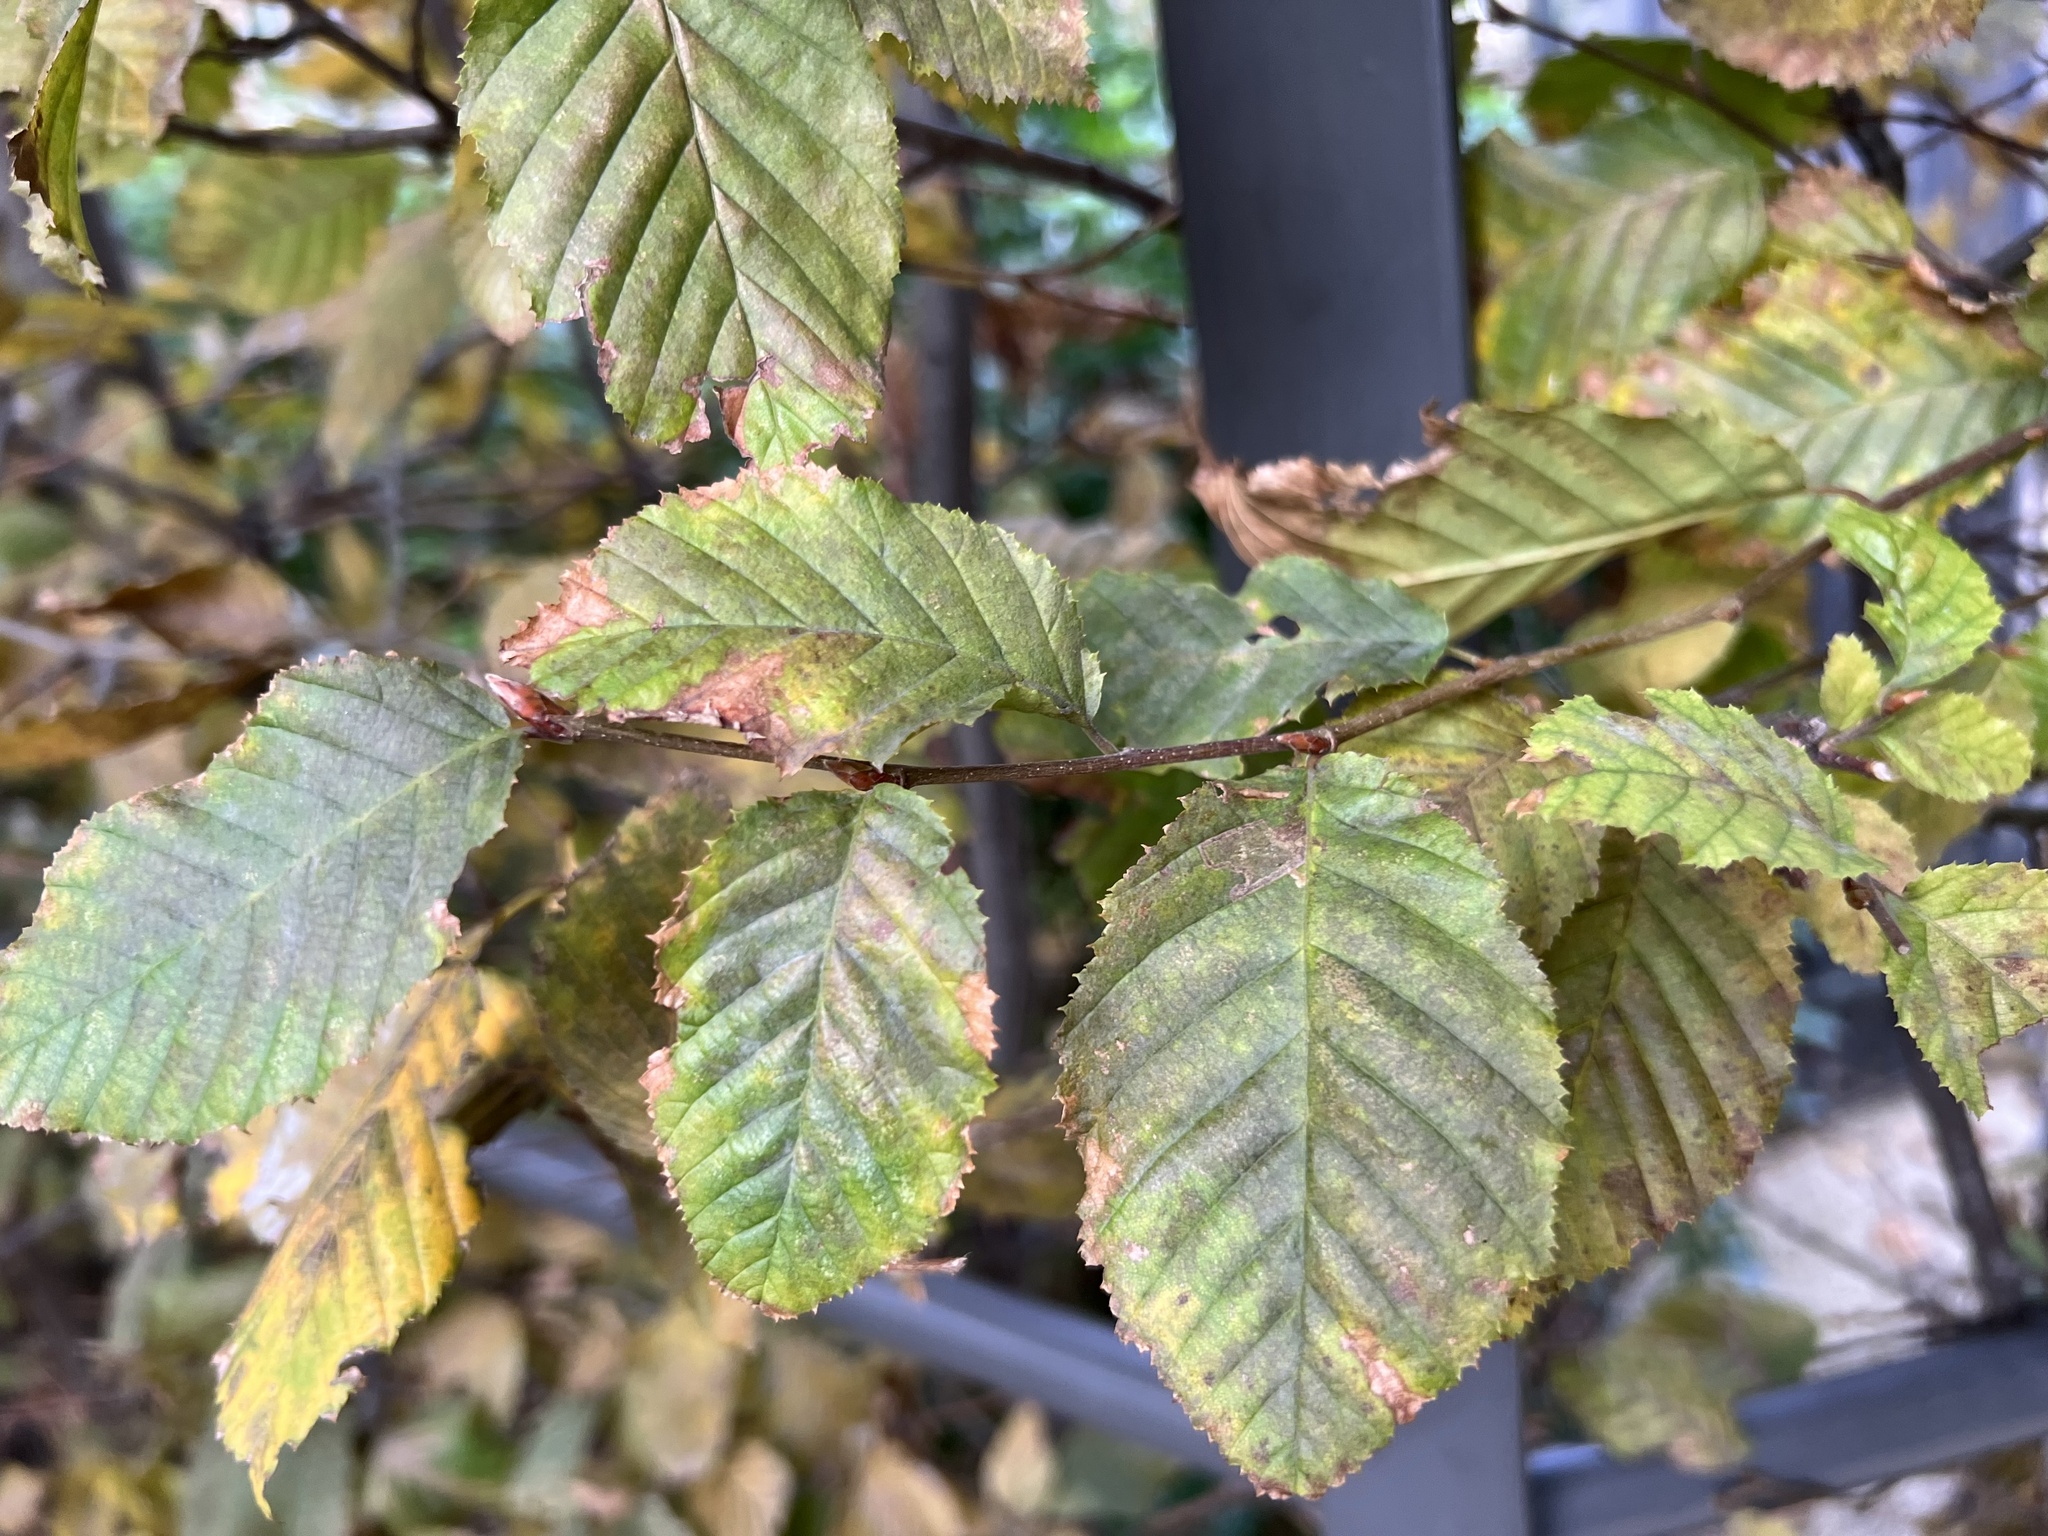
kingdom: Plantae
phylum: Tracheophyta
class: Magnoliopsida
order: Fagales
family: Betulaceae
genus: Carpinus
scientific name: Carpinus betulus
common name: Hornbeam
